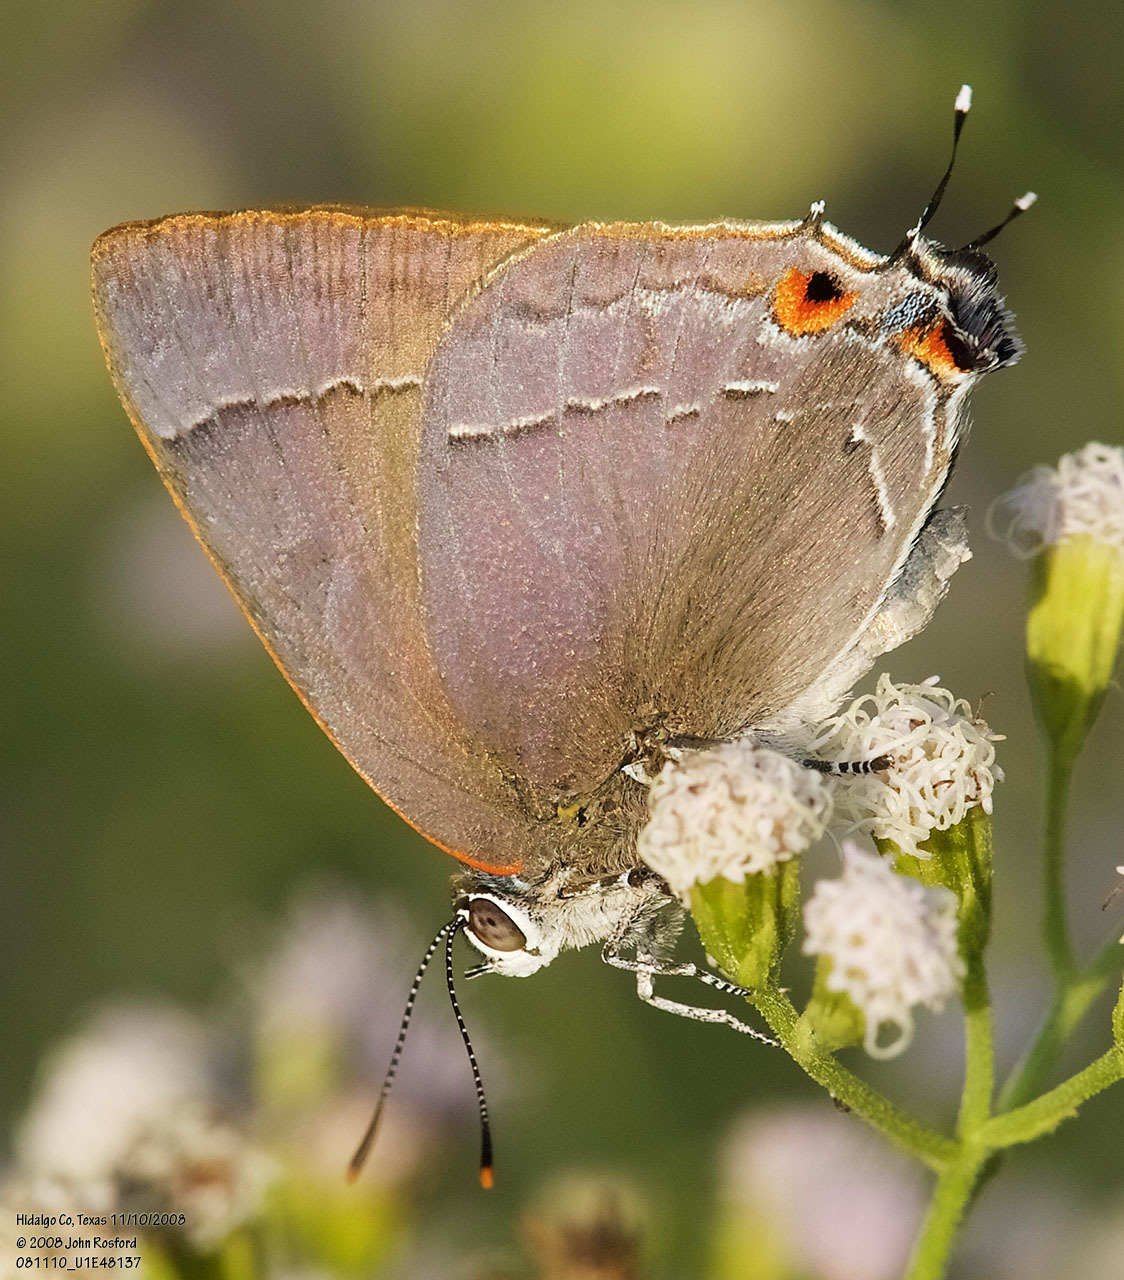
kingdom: Animalia
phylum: Arthropoda
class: Insecta
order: Lepidoptera
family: Lycaenidae
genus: Thecla
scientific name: Thecla marius
